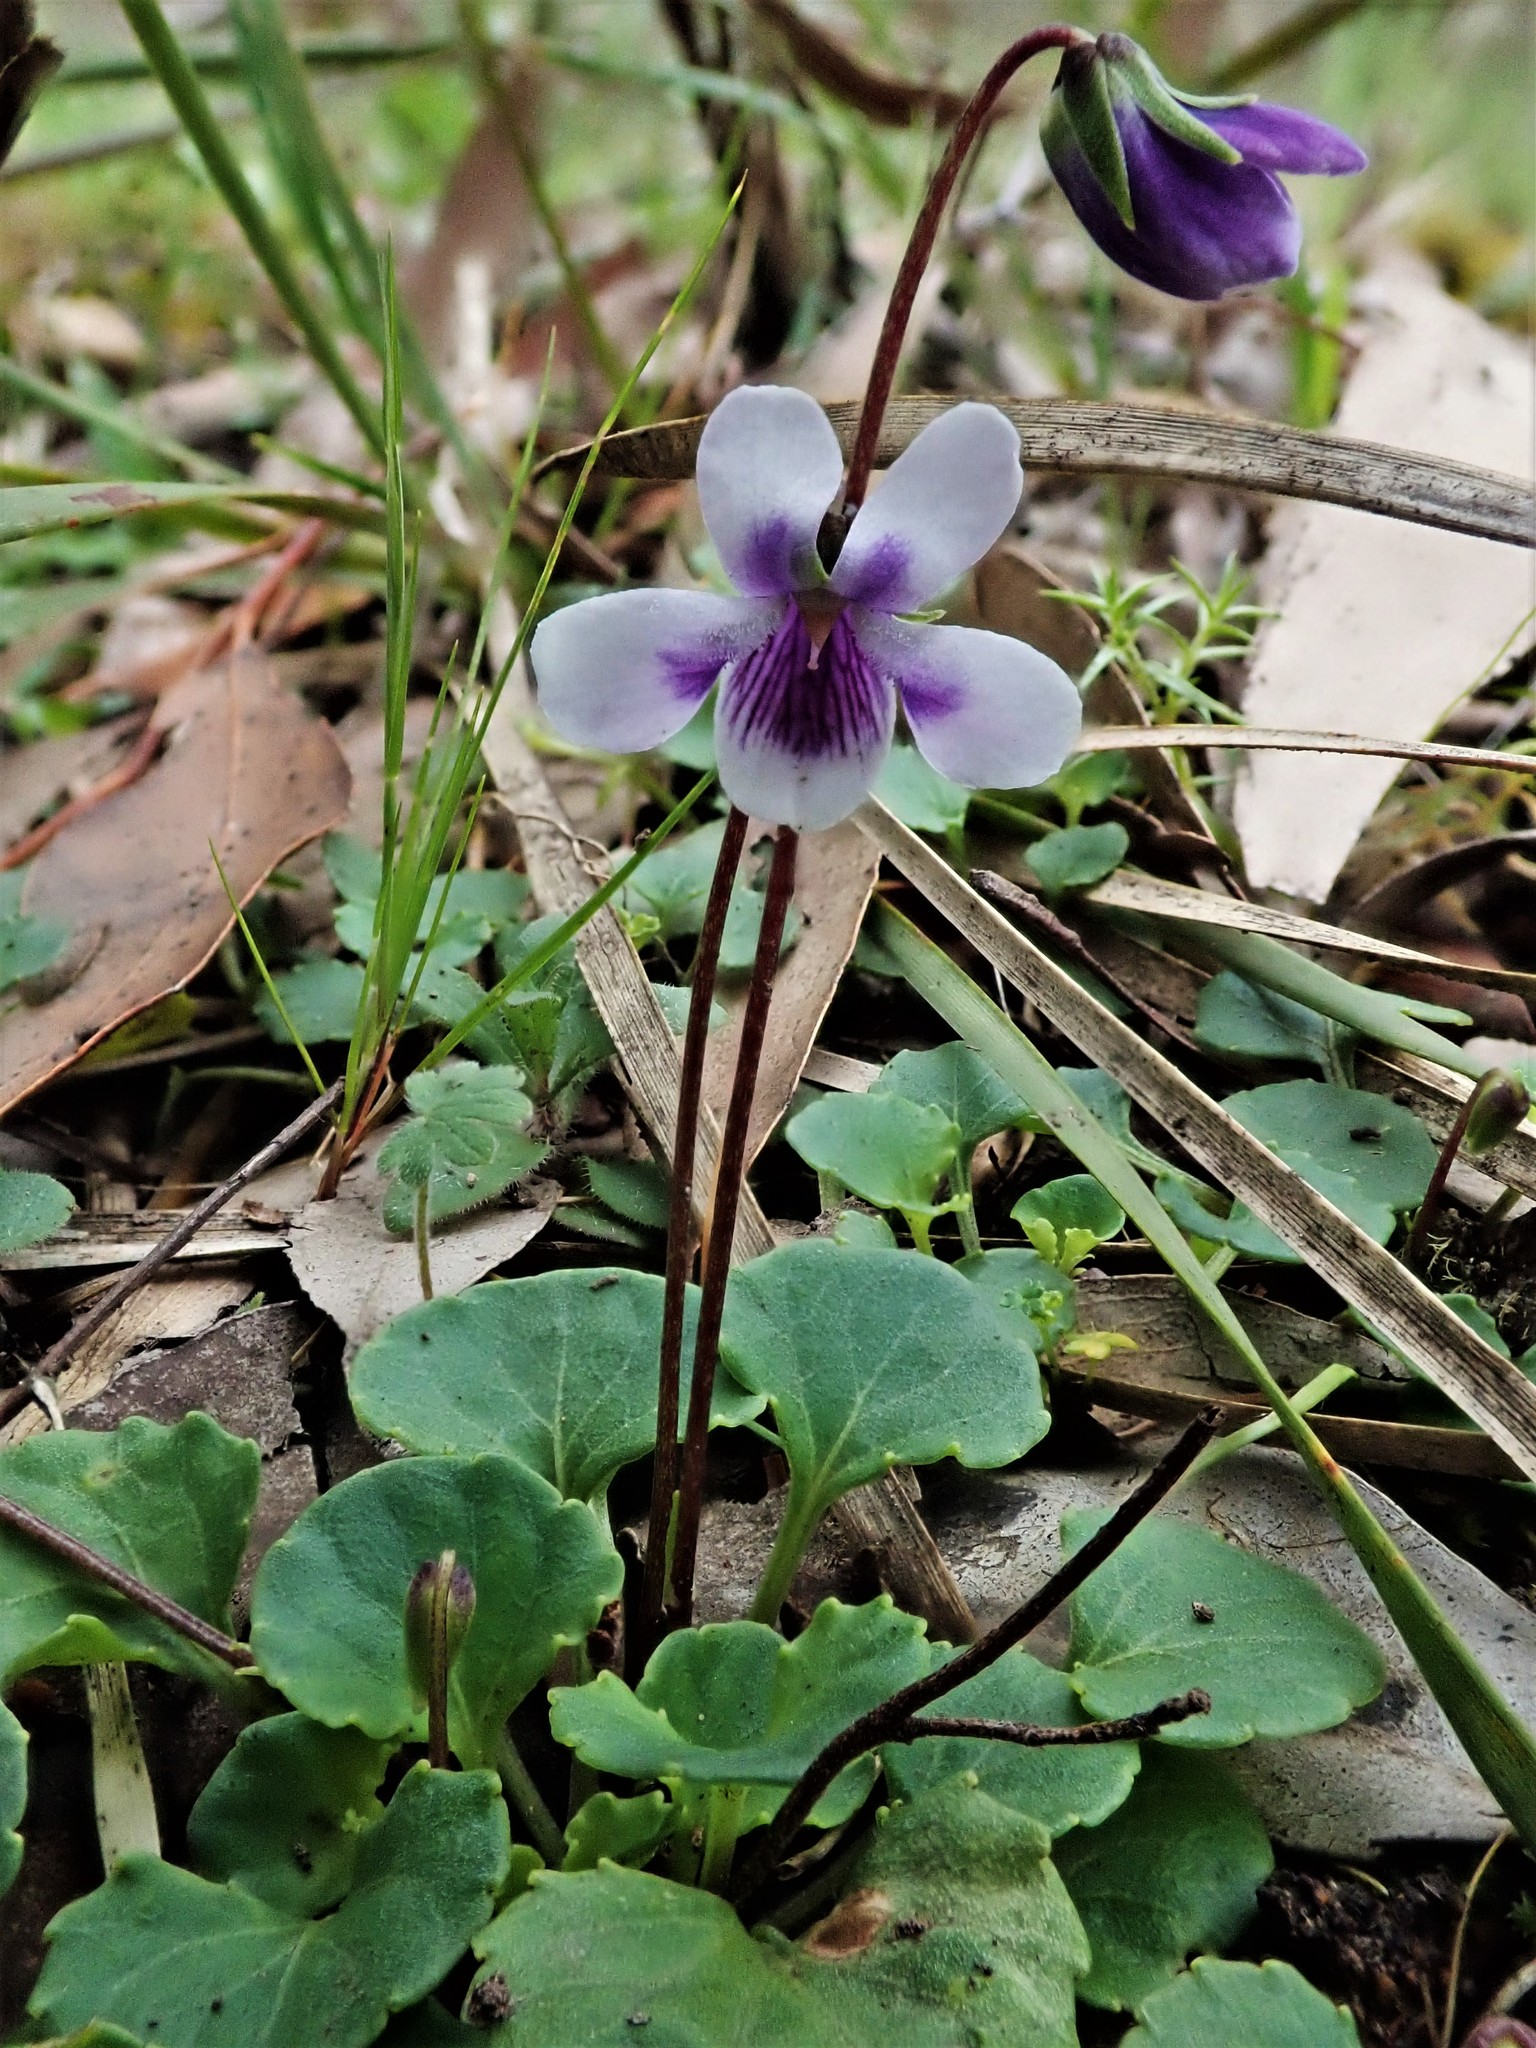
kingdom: Plantae
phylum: Tracheophyta
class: Magnoliopsida
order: Malpighiales
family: Violaceae
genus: Viola
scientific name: Viola hederacea
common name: Australian violet
